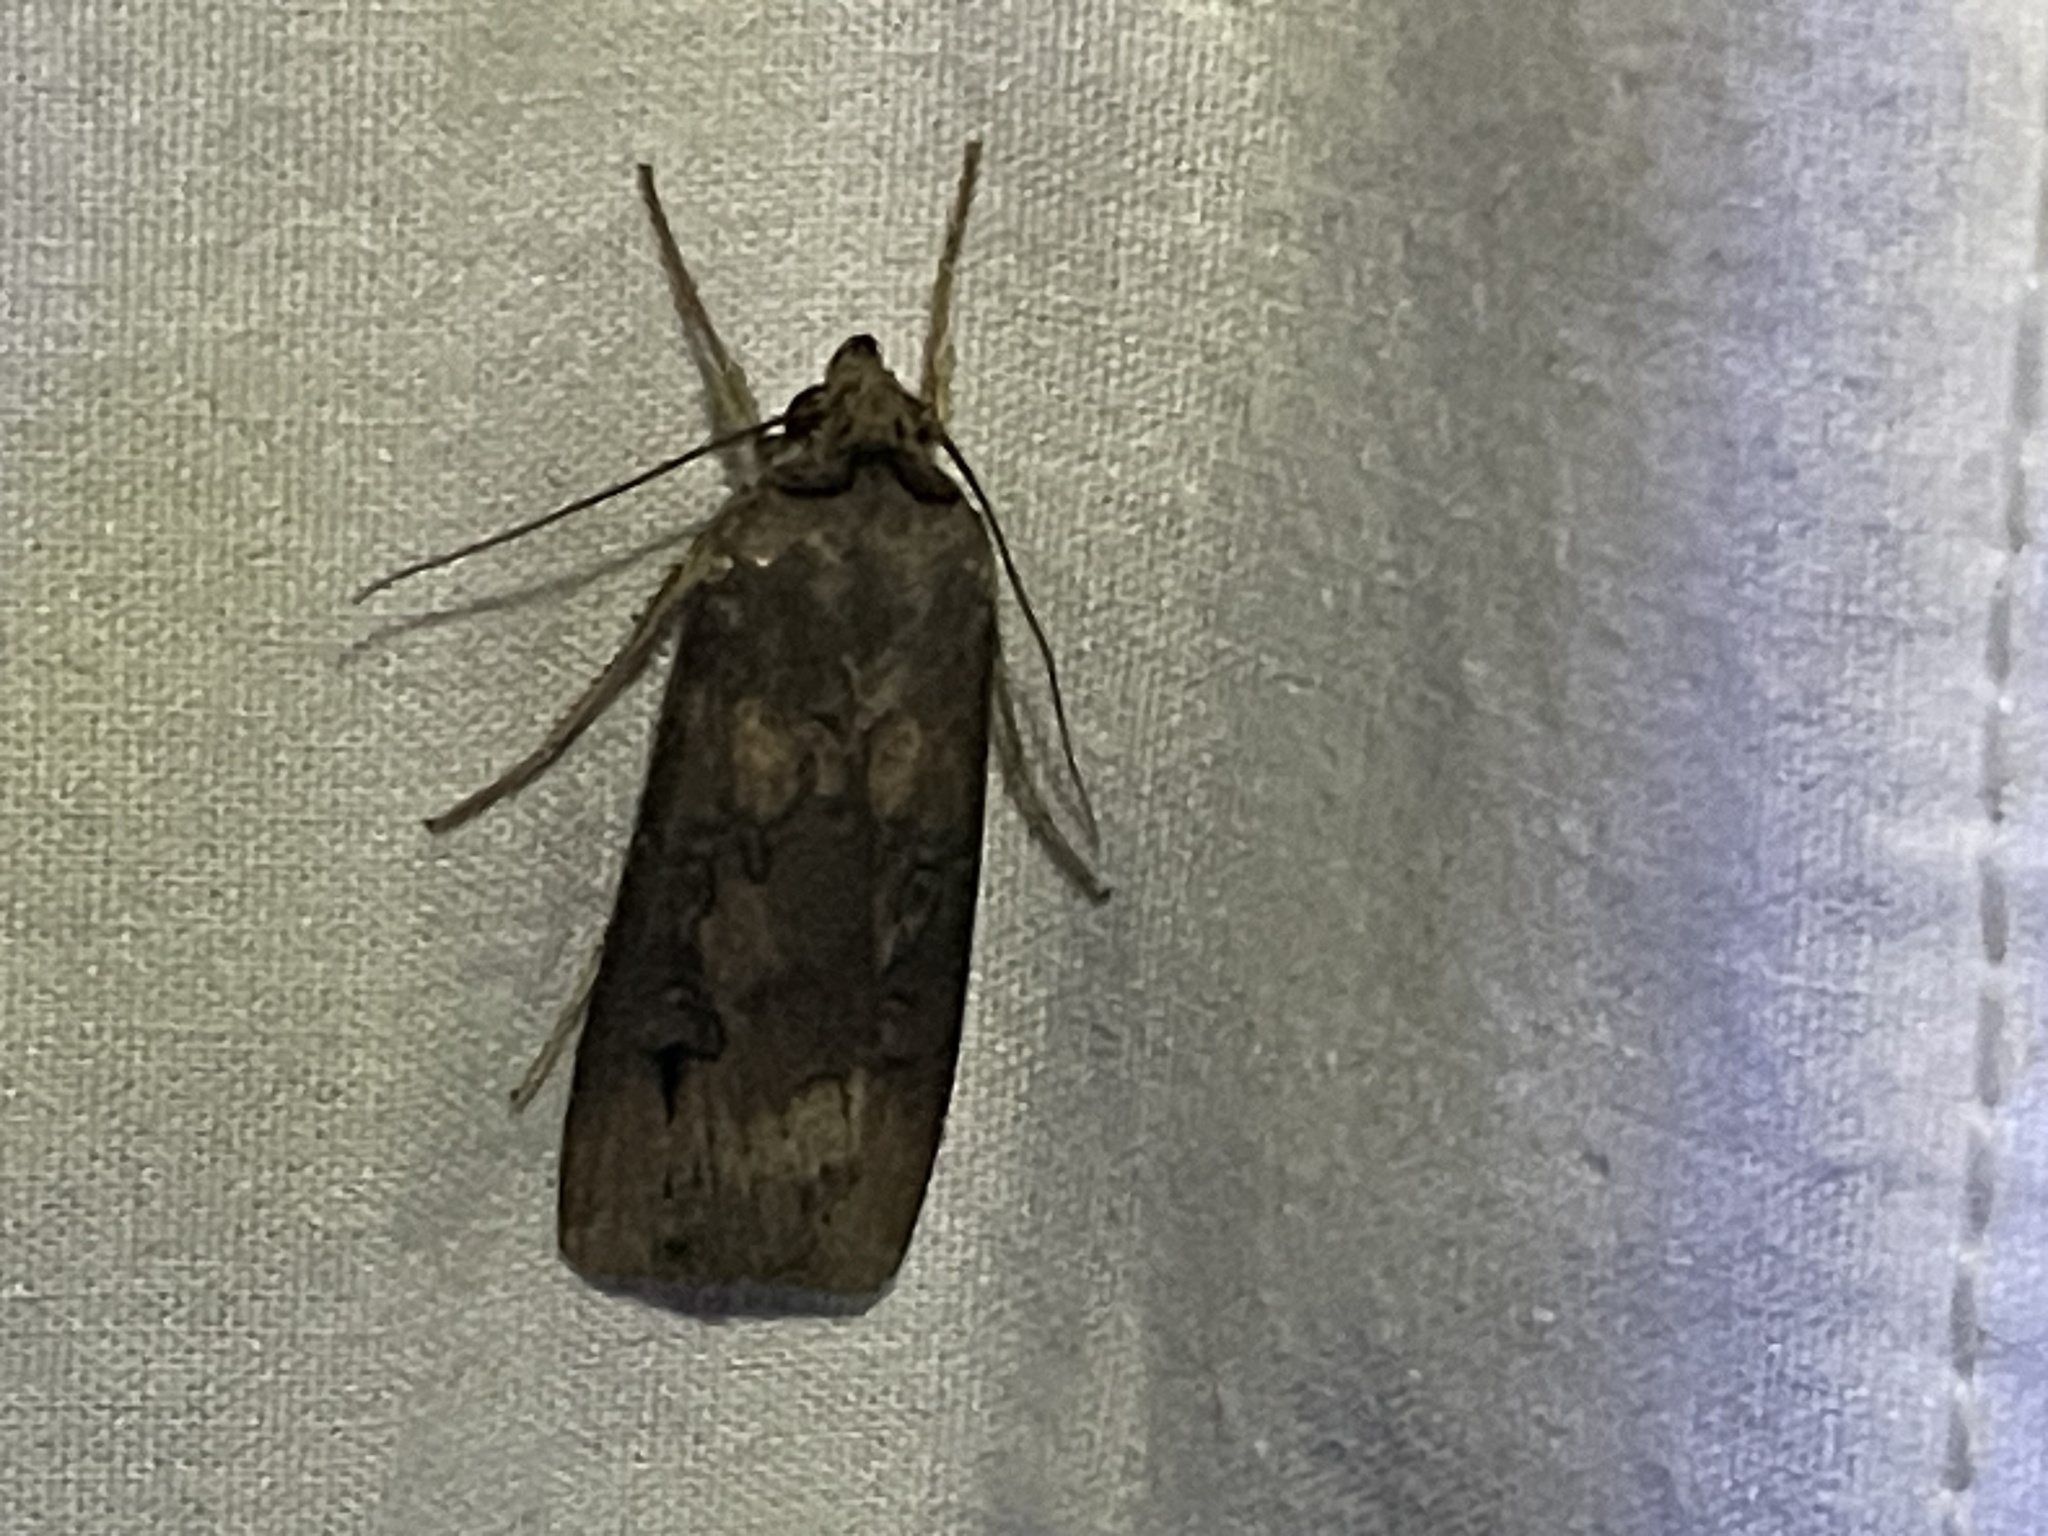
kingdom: Animalia
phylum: Arthropoda
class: Insecta
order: Lepidoptera
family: Noctuidae
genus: Agrotis
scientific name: Agrotis ipsilon
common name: Dark sword-grass
